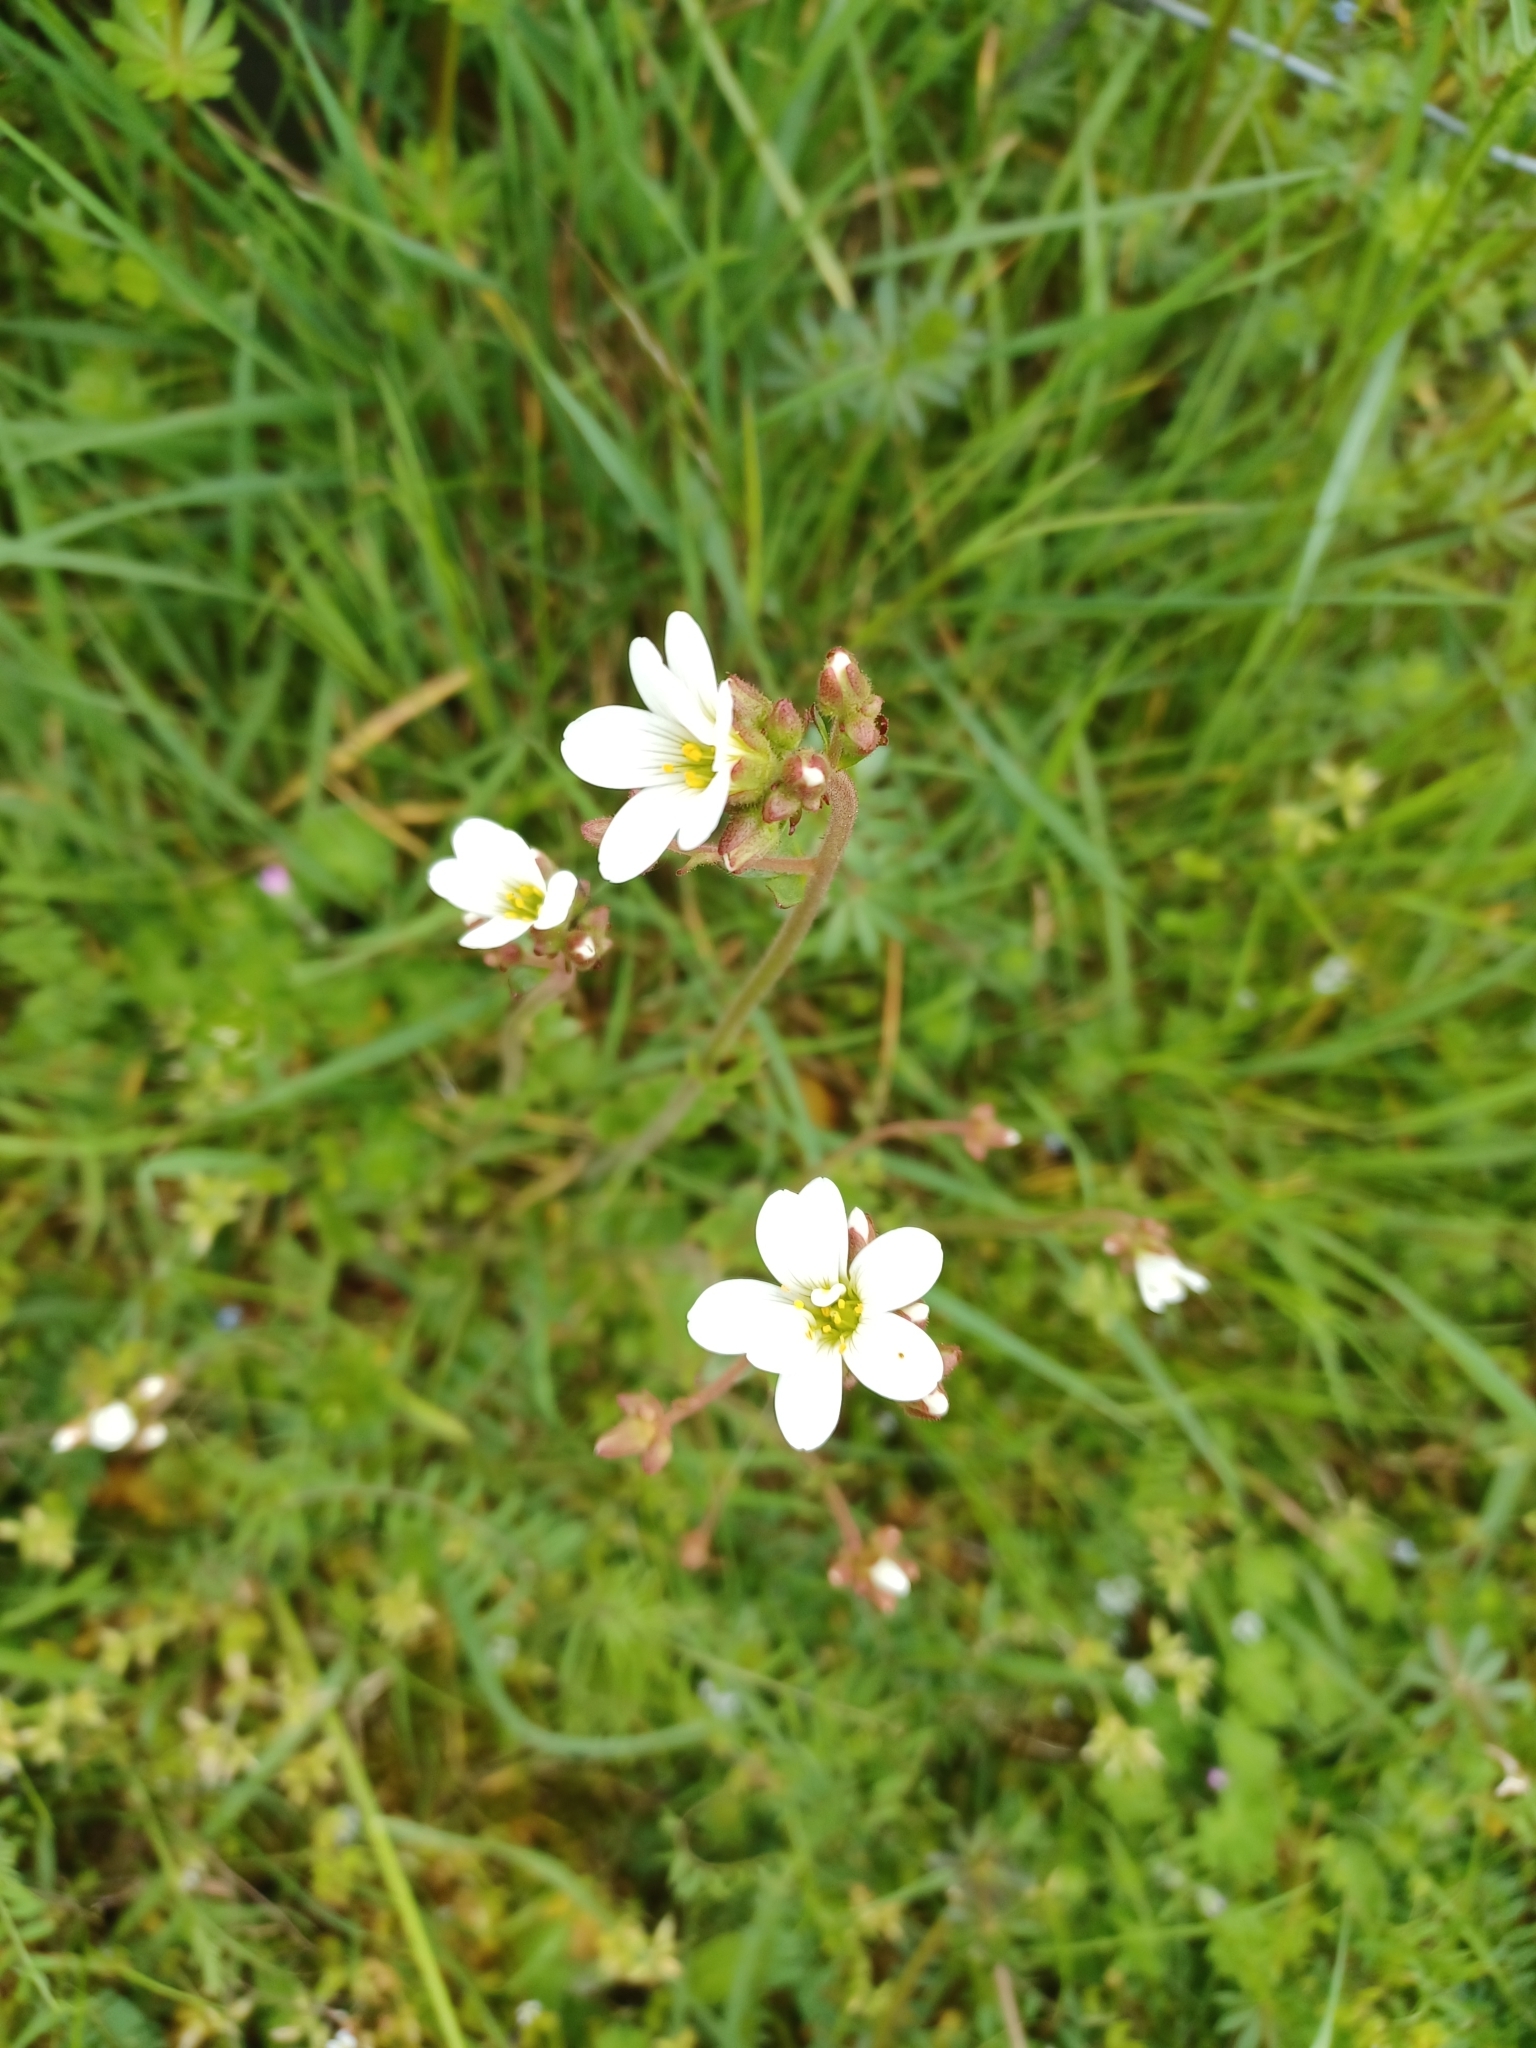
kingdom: Plantae
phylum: Tracheophyta
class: Magnoliopsida
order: Saxifragales
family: Saxifragaceae
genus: Saxifraga
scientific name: Saxifraga granulata
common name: Meadow saxifrage
